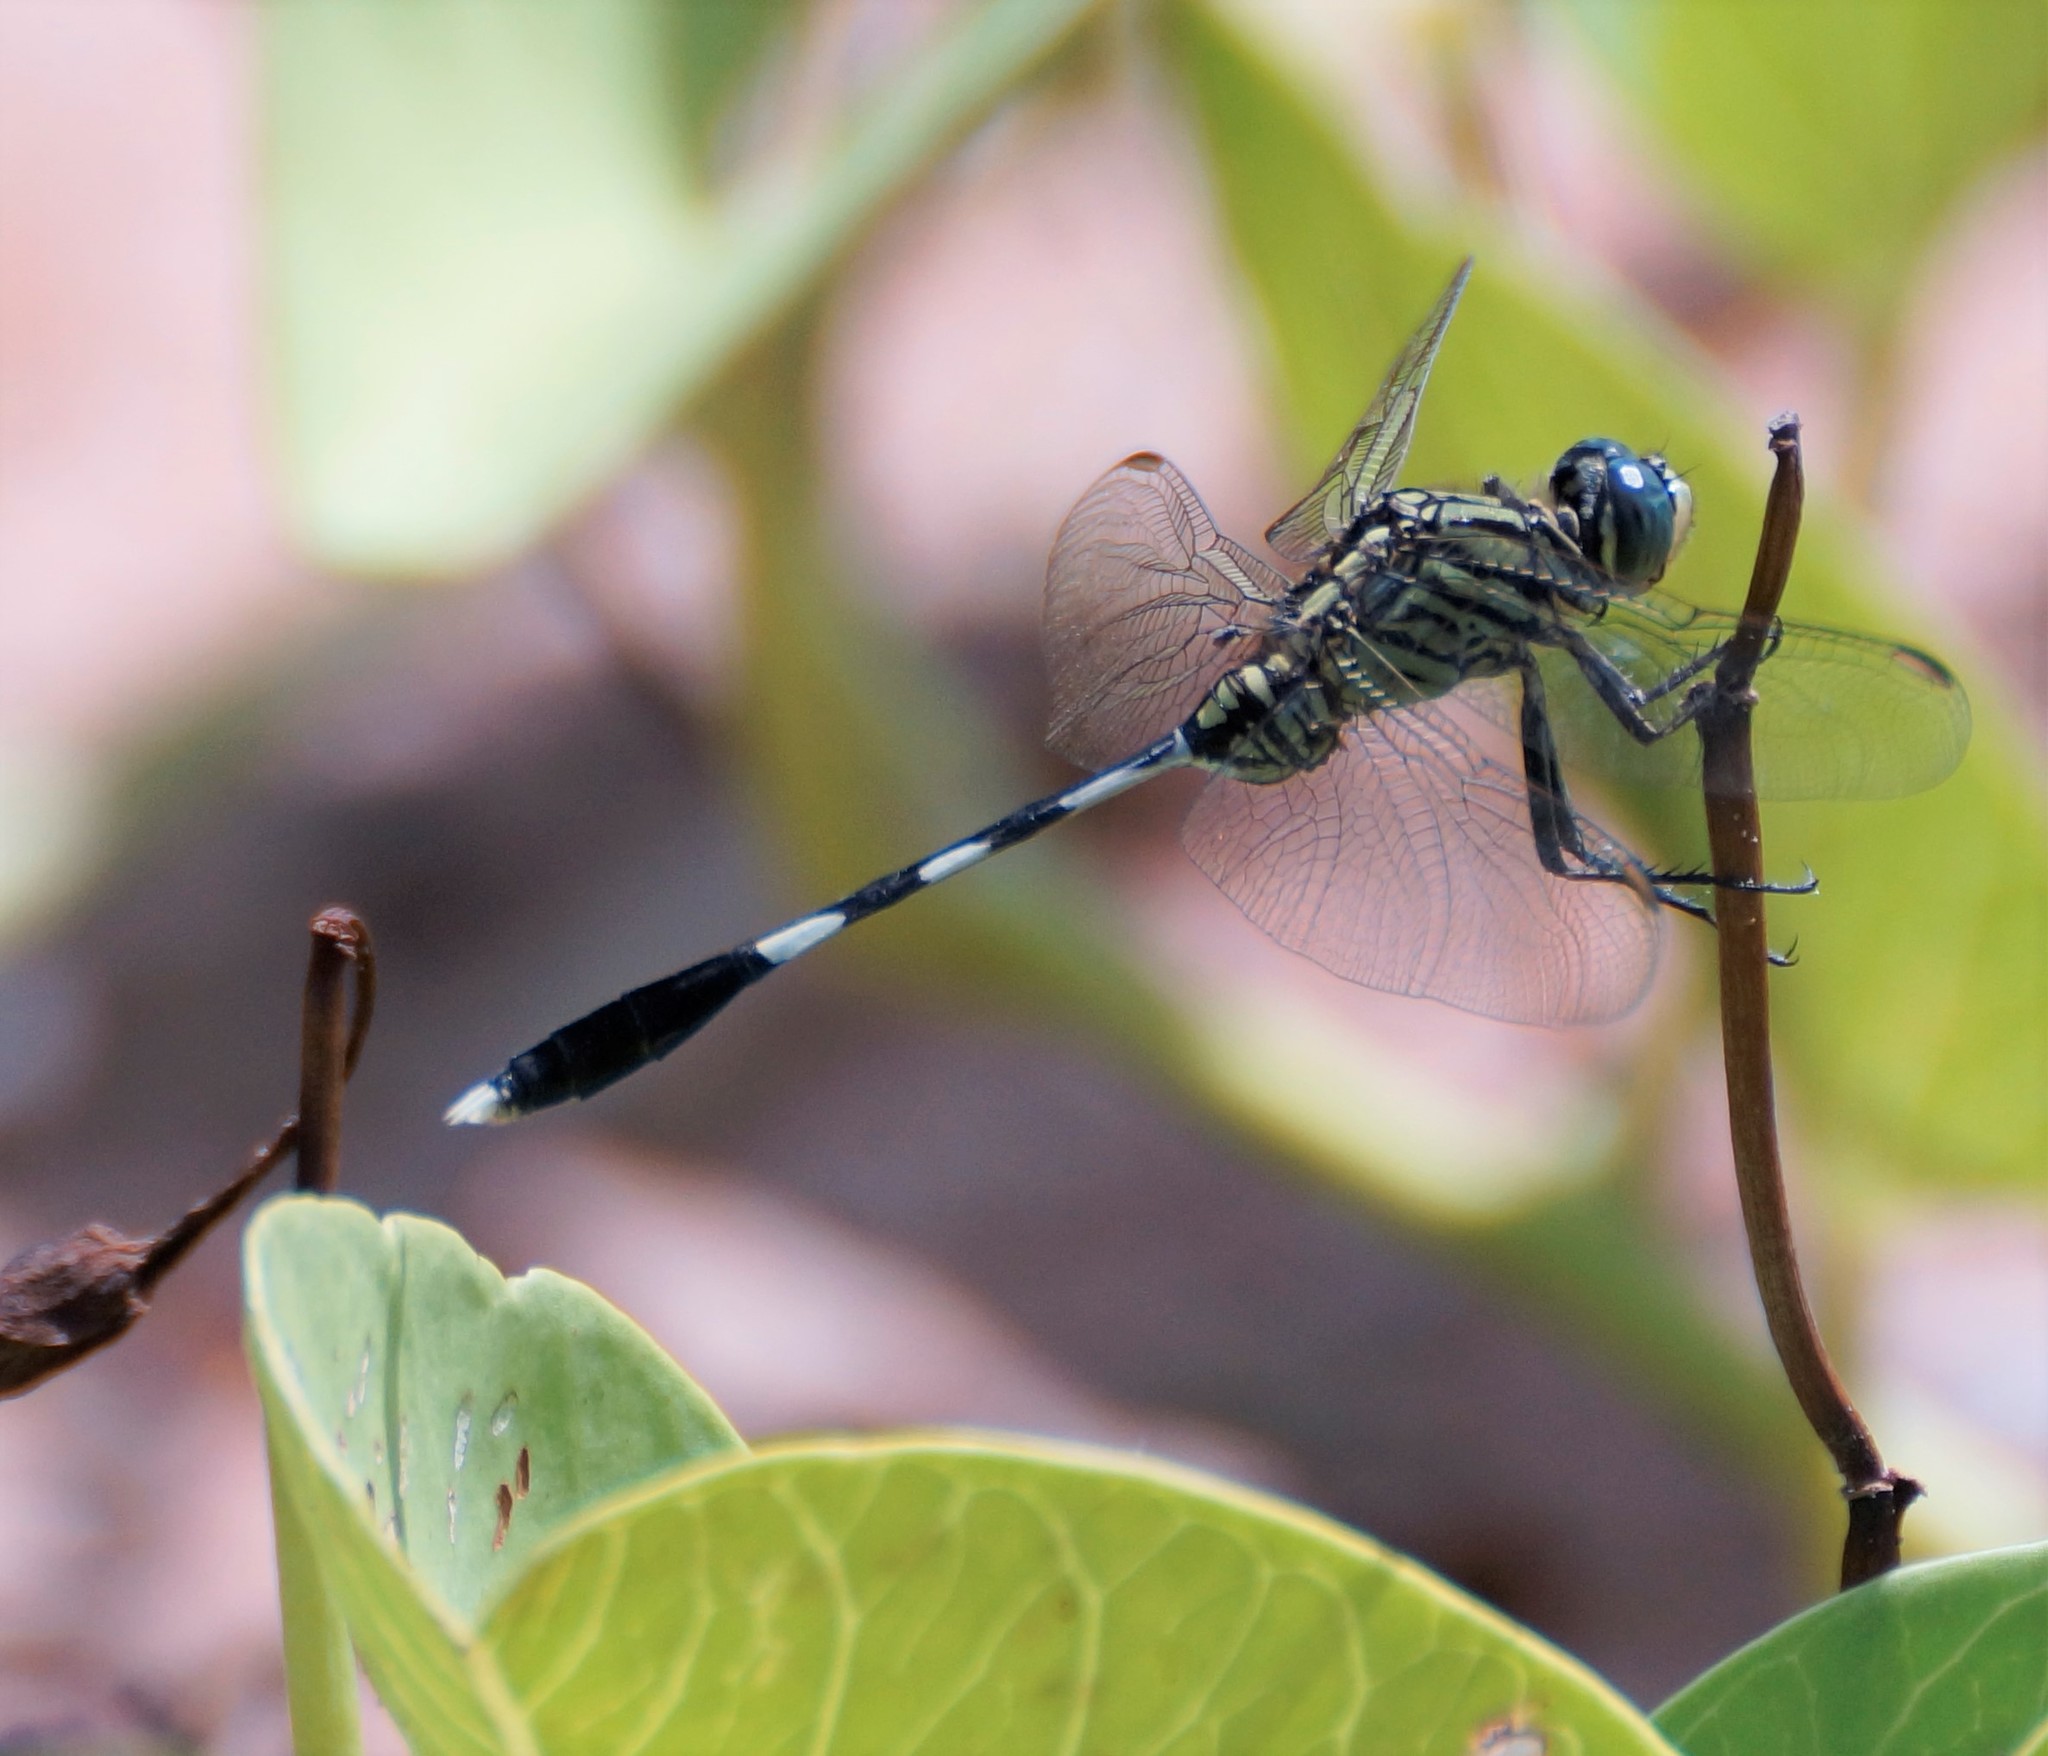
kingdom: Animalia
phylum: Arthropoda
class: Insecta
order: Odonata
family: Libellulidae
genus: Orthetrum
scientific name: Orthetrum sabina
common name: Slender skimmer
